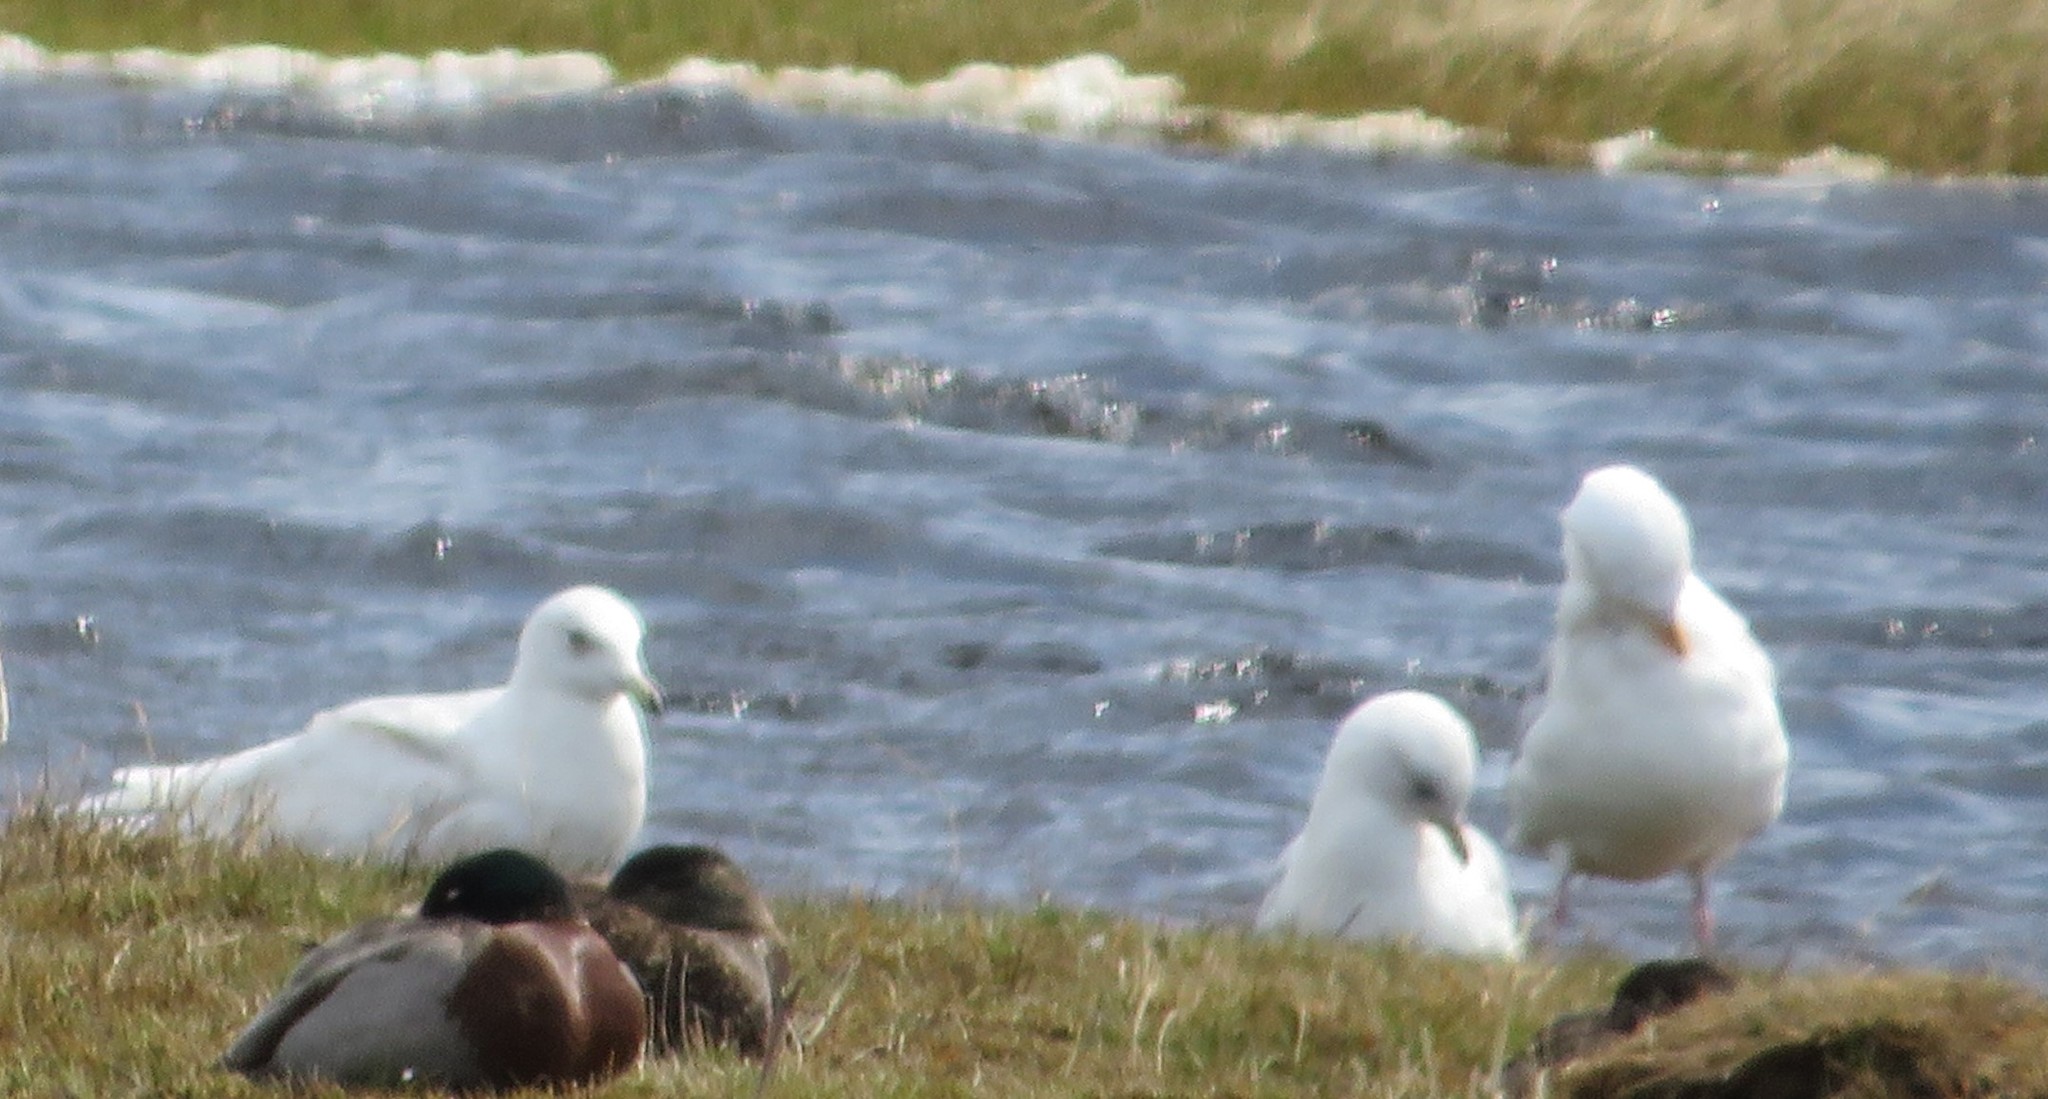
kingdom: Animalia
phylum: Chordata
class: Aves
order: Charadriiformes
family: Laridae
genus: Larus
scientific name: Larus glaucoides
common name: Iceland gull
